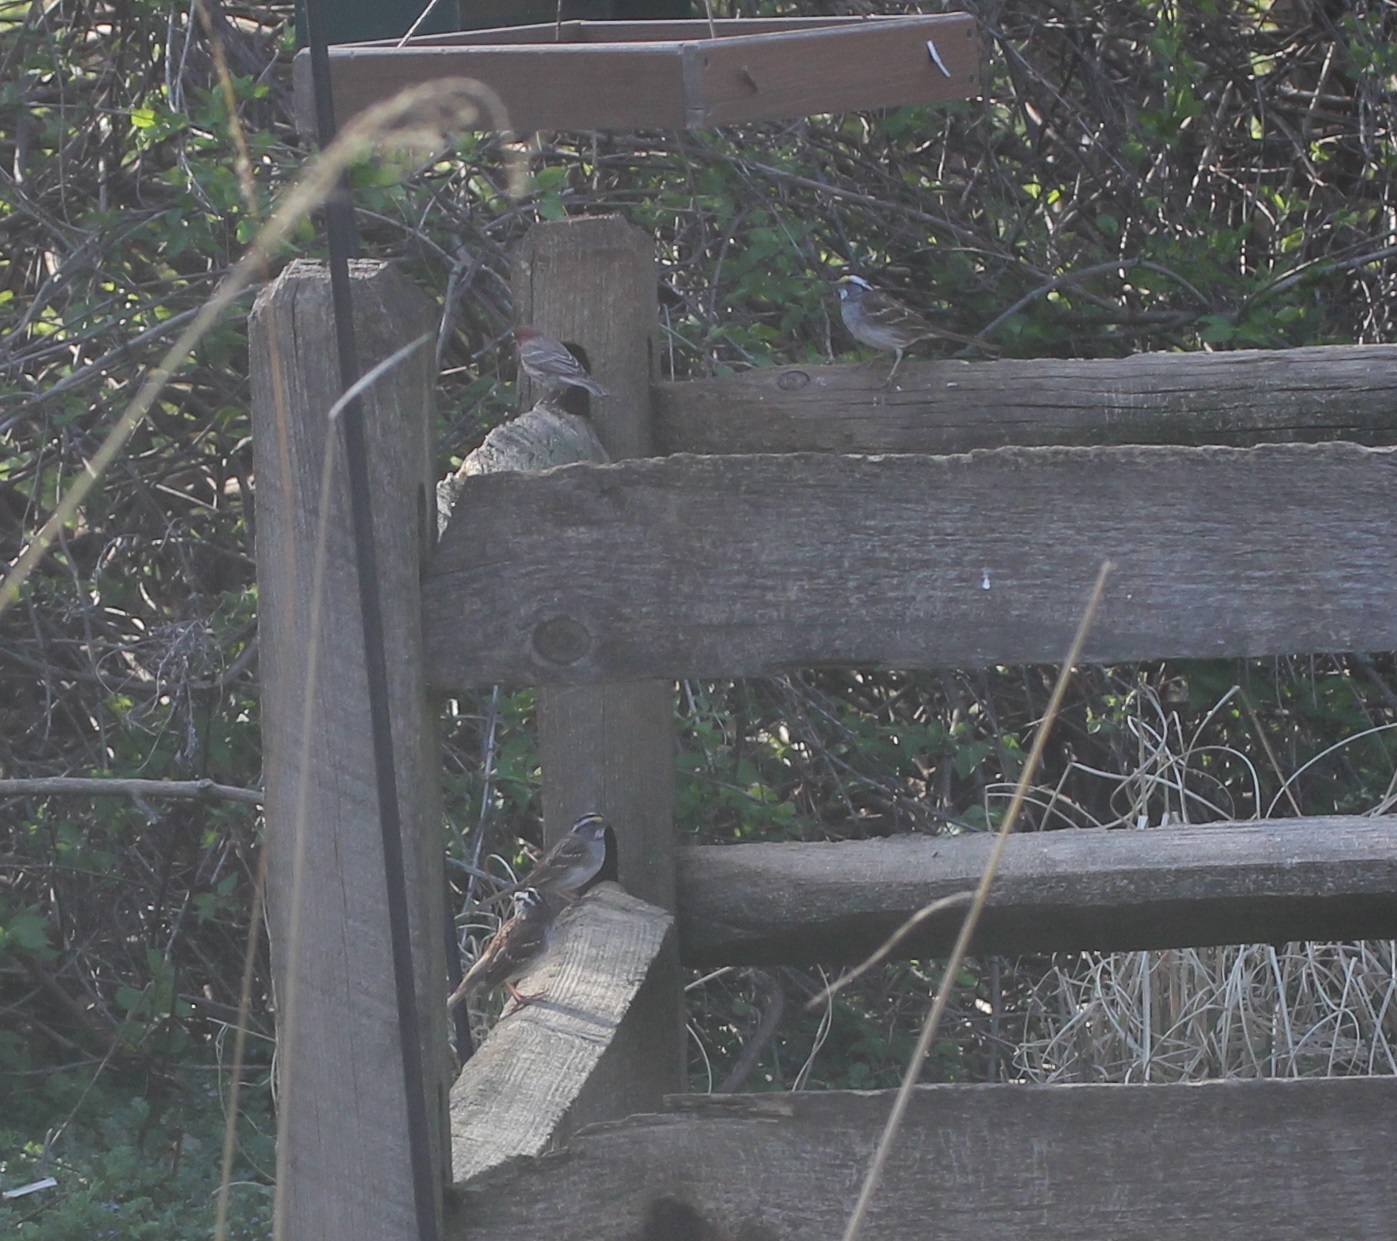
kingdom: Animalia
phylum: Chordata
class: Aves
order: Passeriformes
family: Passerellidae
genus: Zonotrichia
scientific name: Zonotrichia albicollis
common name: White-throated sparrow
